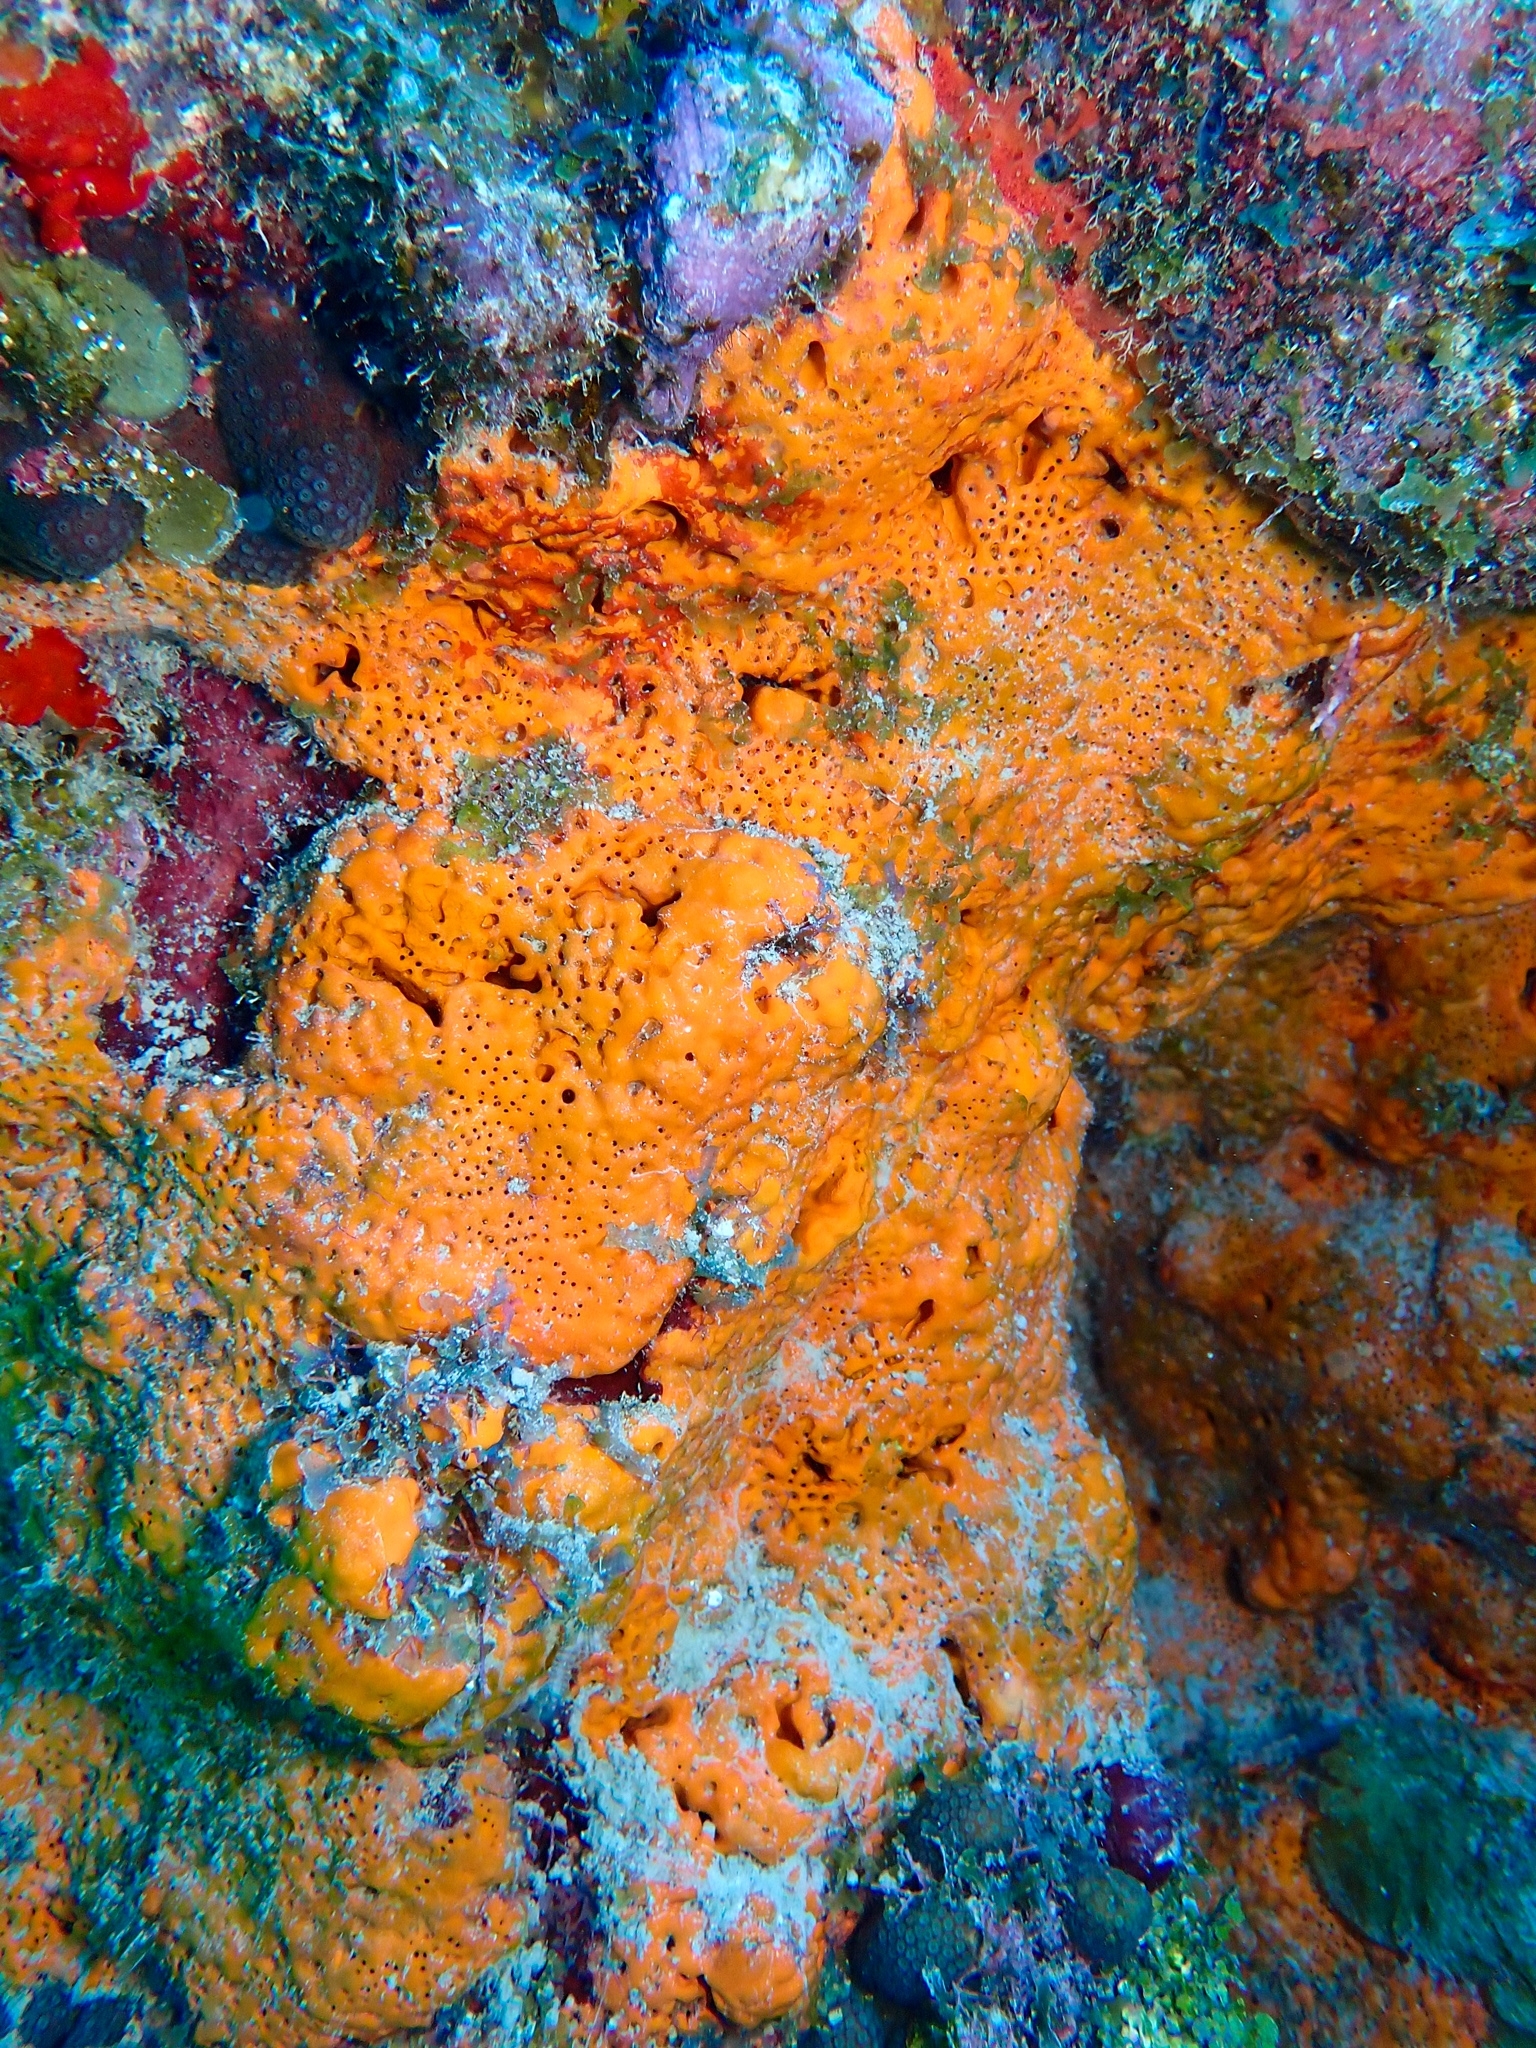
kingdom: Animalia
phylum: Porifera
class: Demospongiae
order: Agelasida
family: Agelasidae
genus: Agelas
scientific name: Agelas clathrodes
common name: Orange elephant ear sponge
